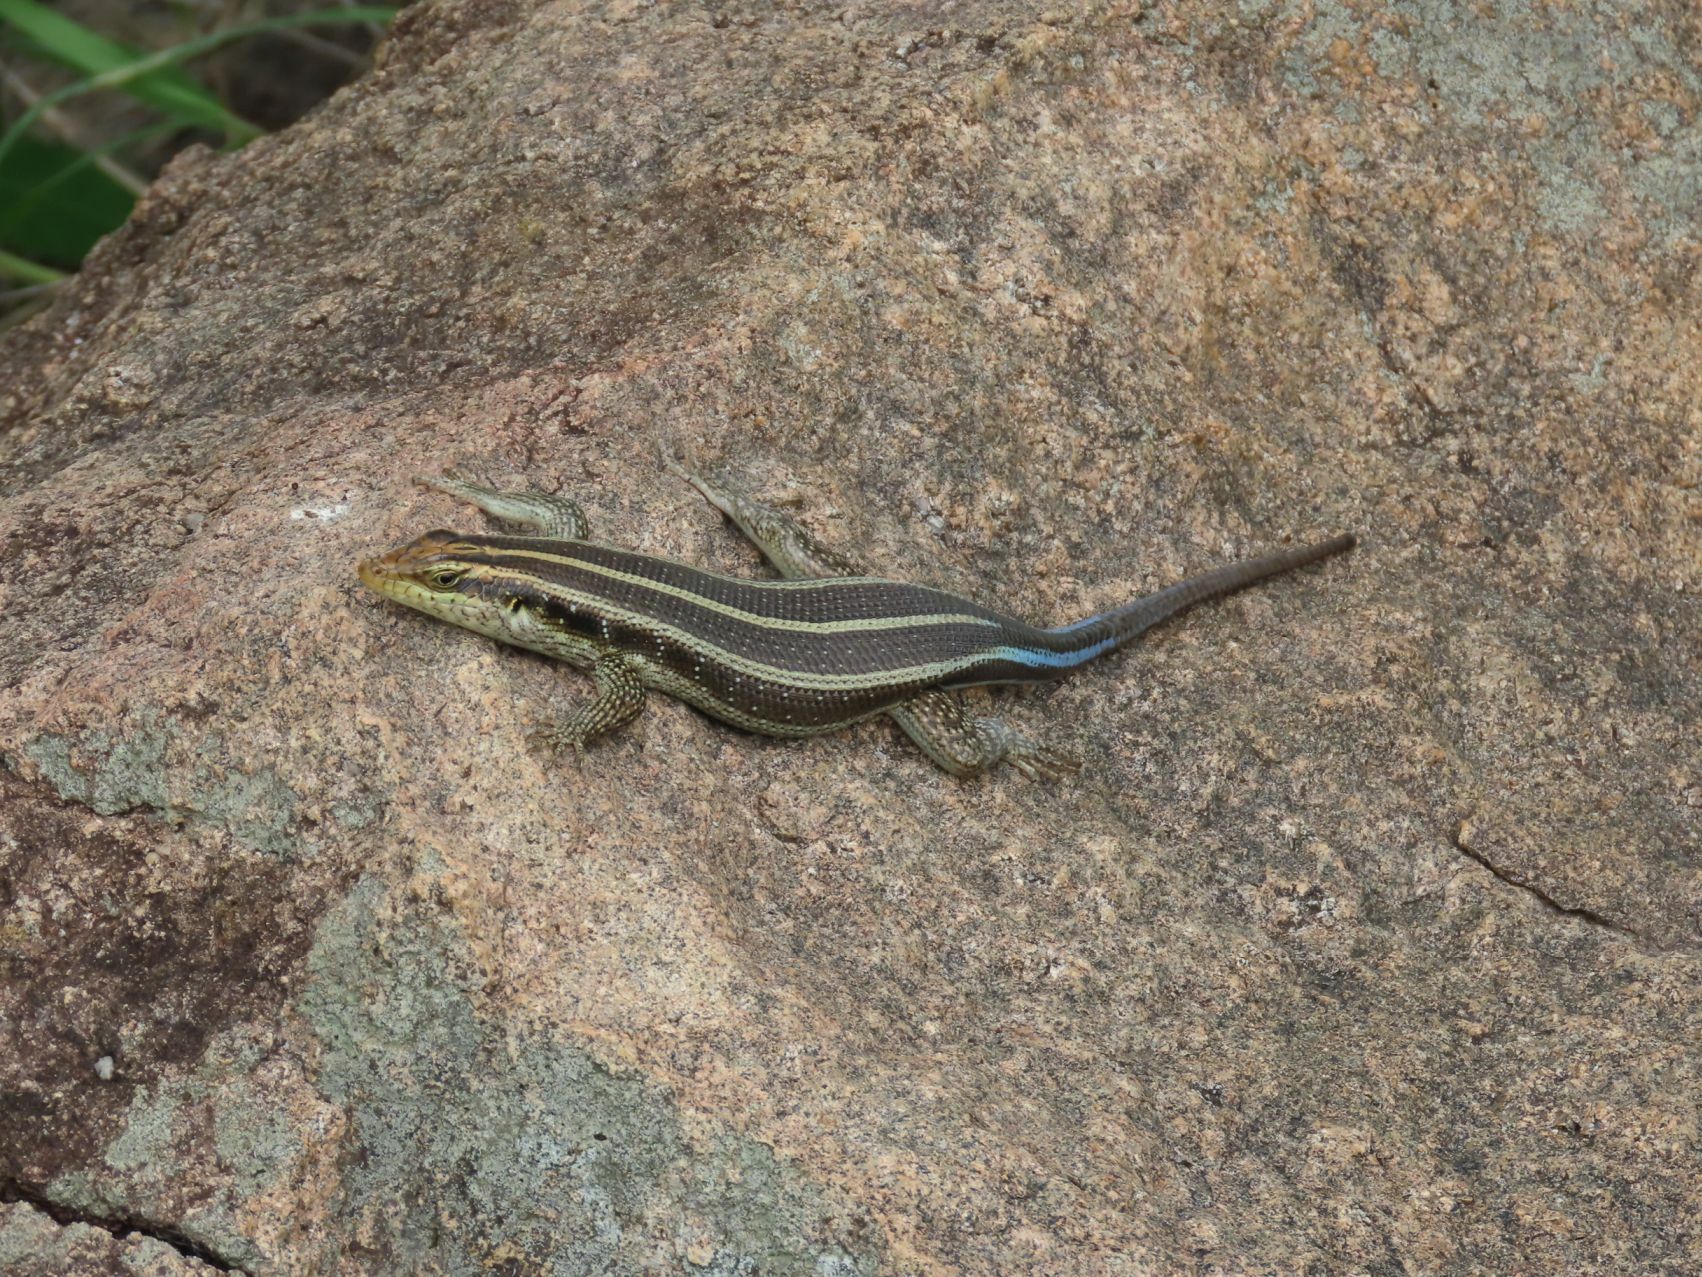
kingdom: Animalia
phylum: Chordata
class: Squamata
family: Scincidae
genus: Trachylepis
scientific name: Trachylepis margaritifera
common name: Rainbow skink
